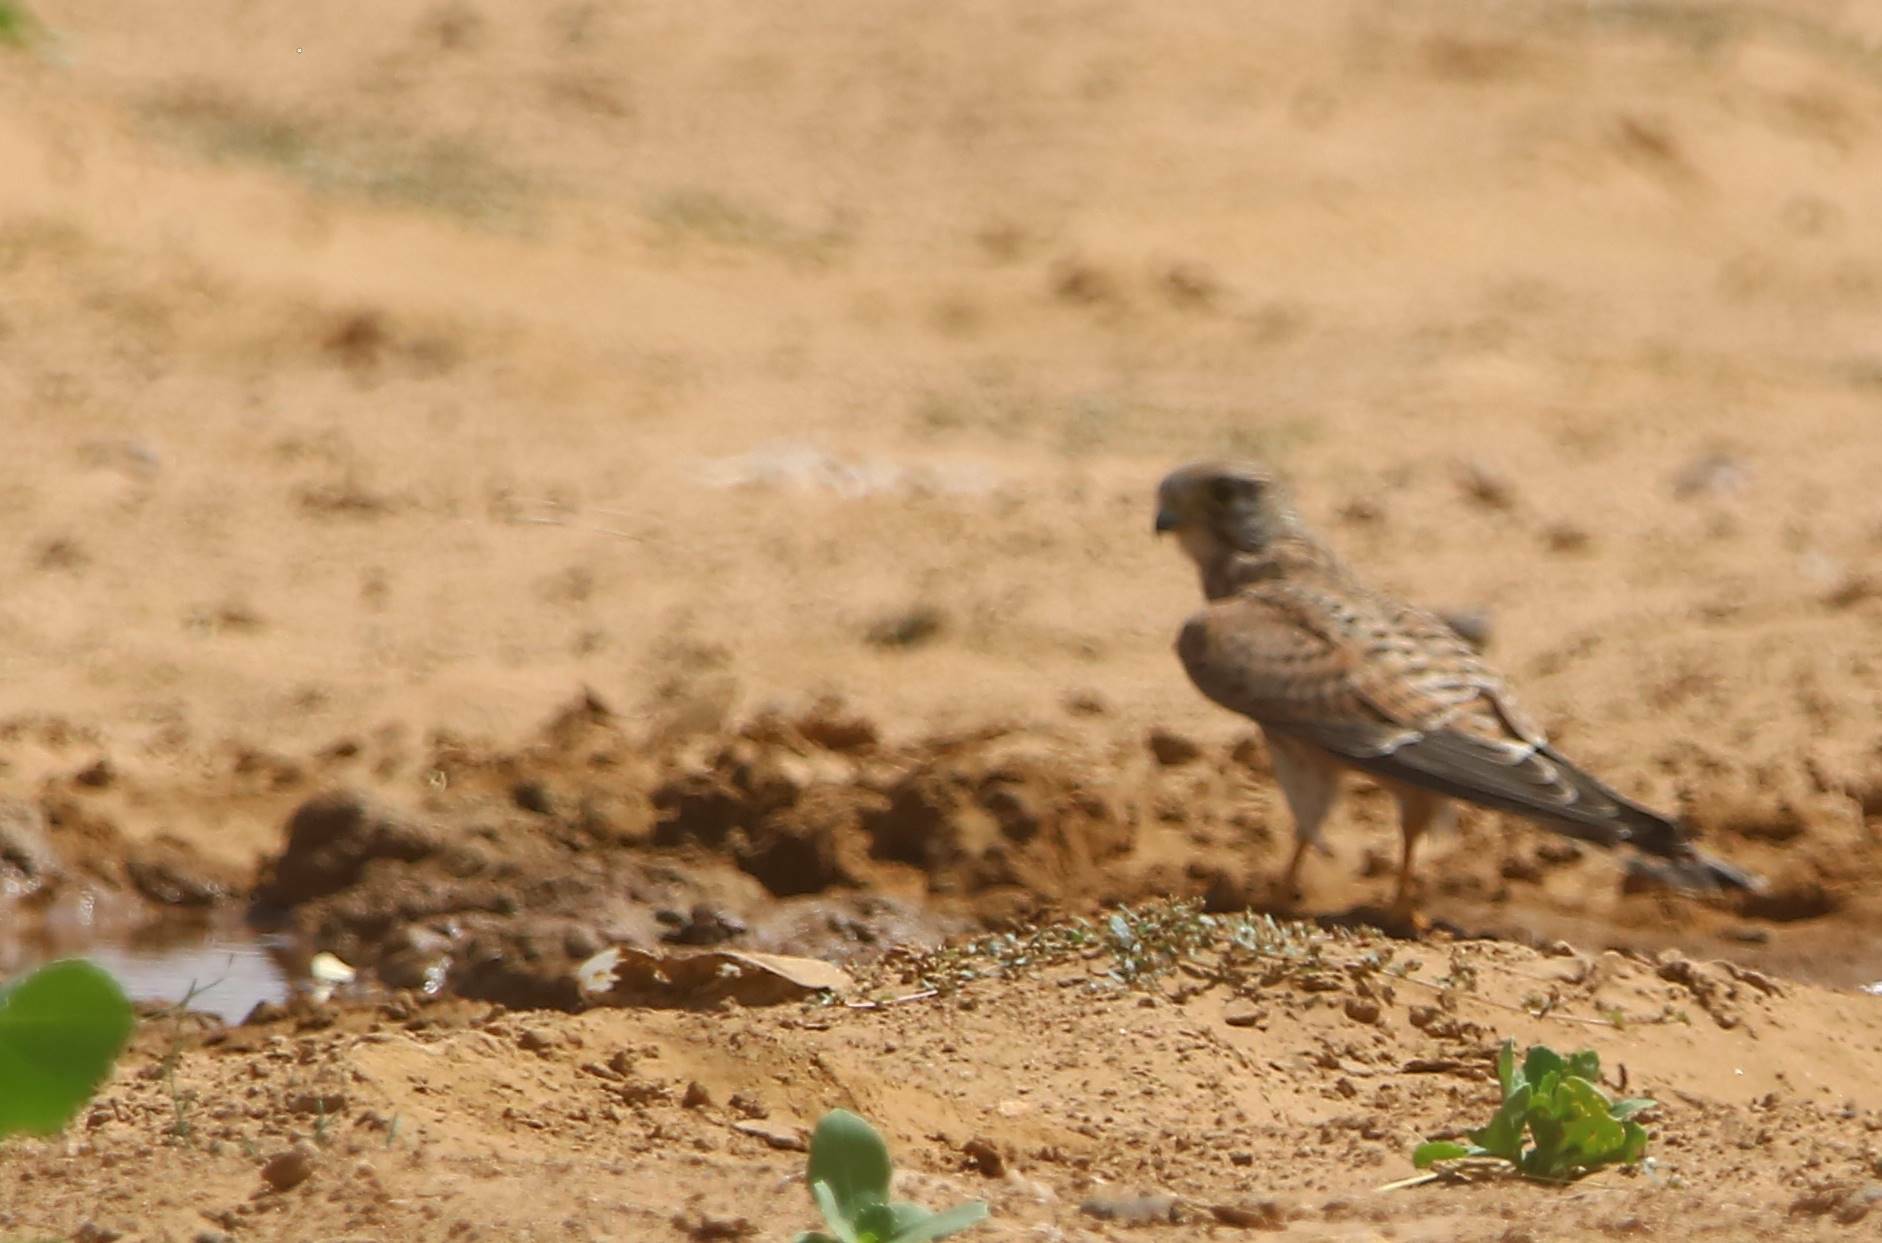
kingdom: Animalia
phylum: Chordata
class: Aves
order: Falconiformes
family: Falconidae
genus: Falco
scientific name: Falco tinnunculus
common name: Common kestrel
